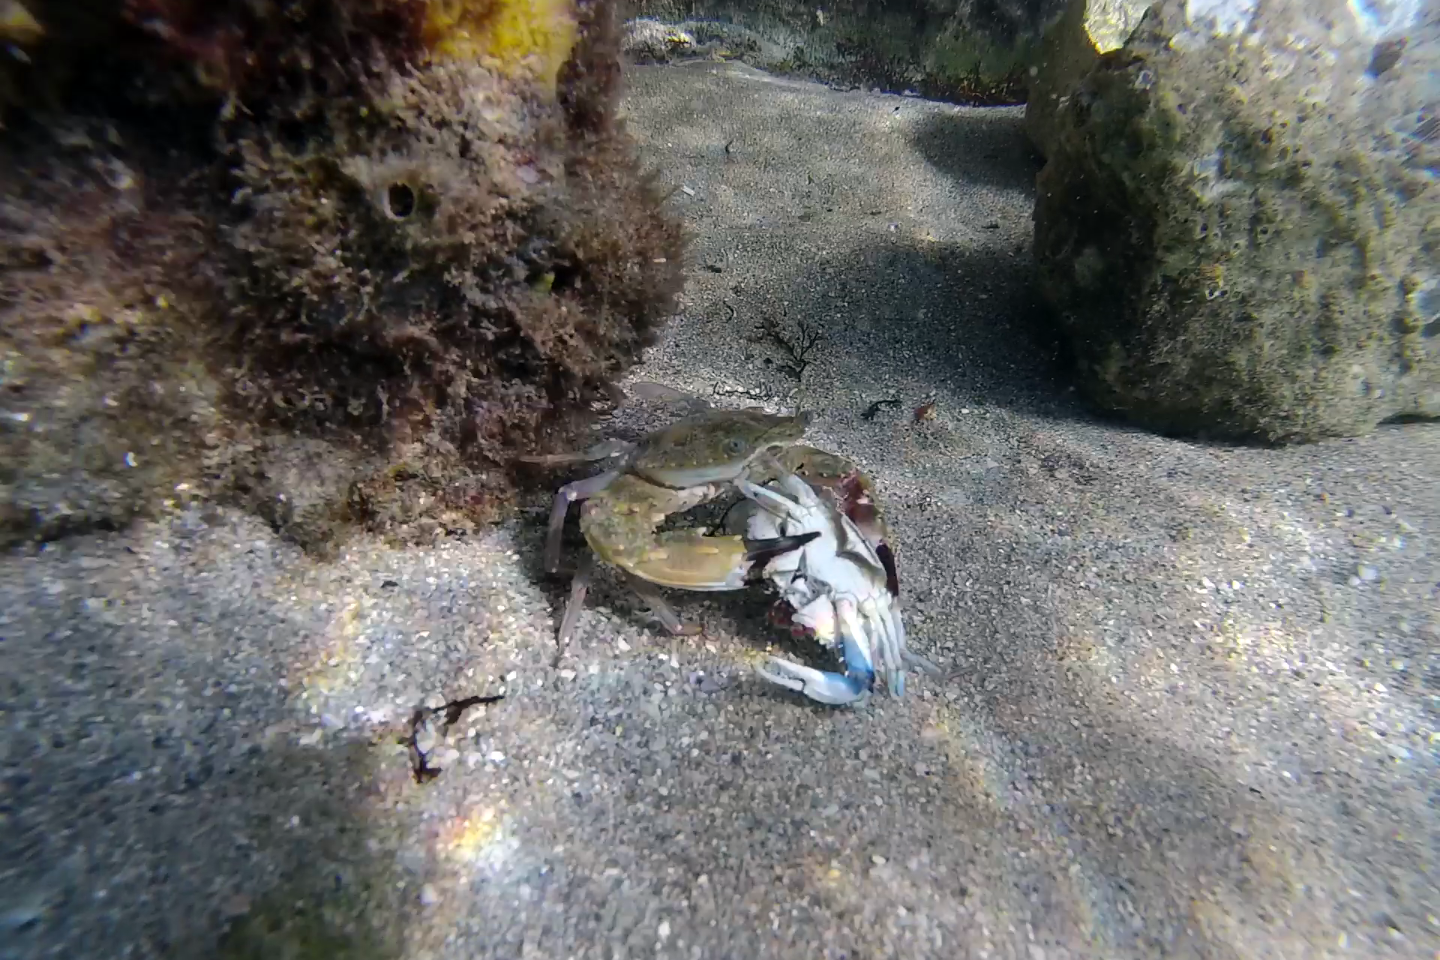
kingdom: Animalia
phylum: Arthropoda
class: Malacostraca
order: Decapoda
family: Portunidae
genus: Charybdis
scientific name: Charybdis hellerii
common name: Spiny hands
